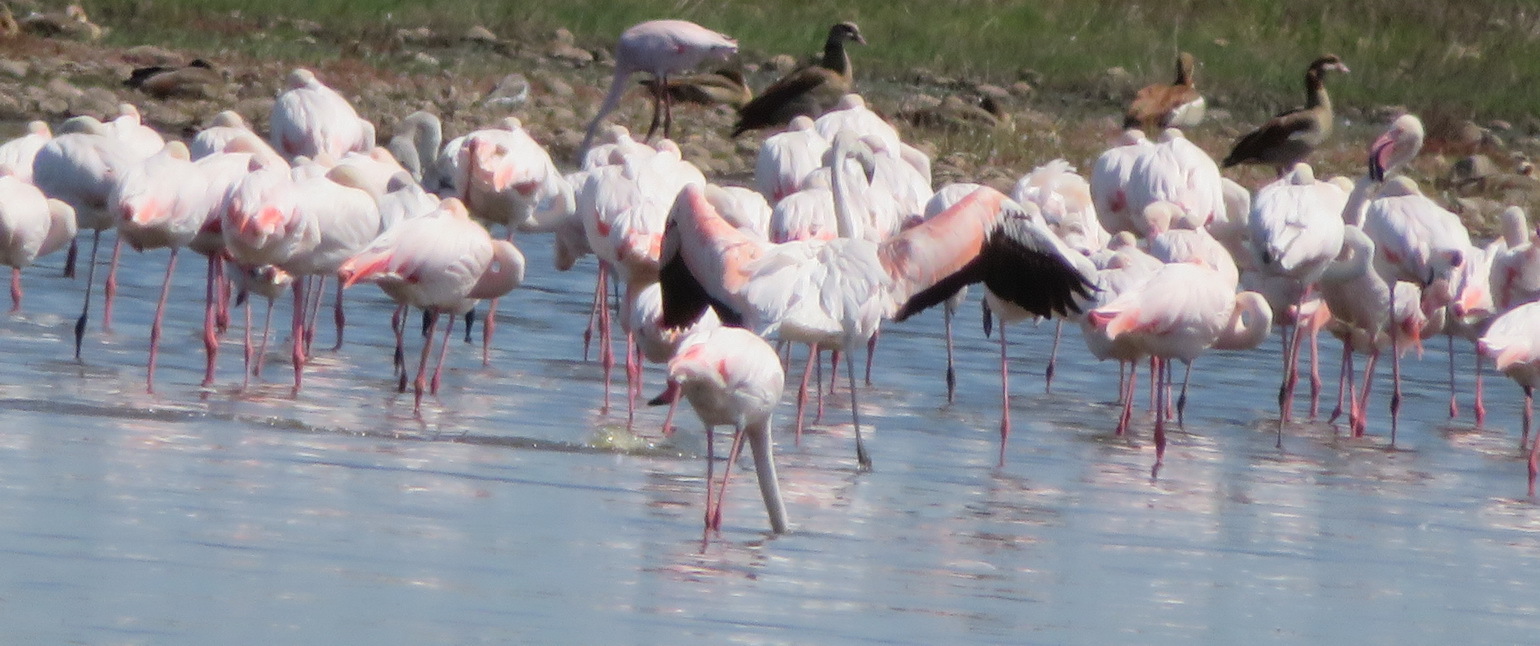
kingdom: Animalia
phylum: Chordata
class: Aves
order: Phoenicopteriformes
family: Phoenicopteridae
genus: Phoenicopterus
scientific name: Phoenicopterus roseus
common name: Greater flamingo
